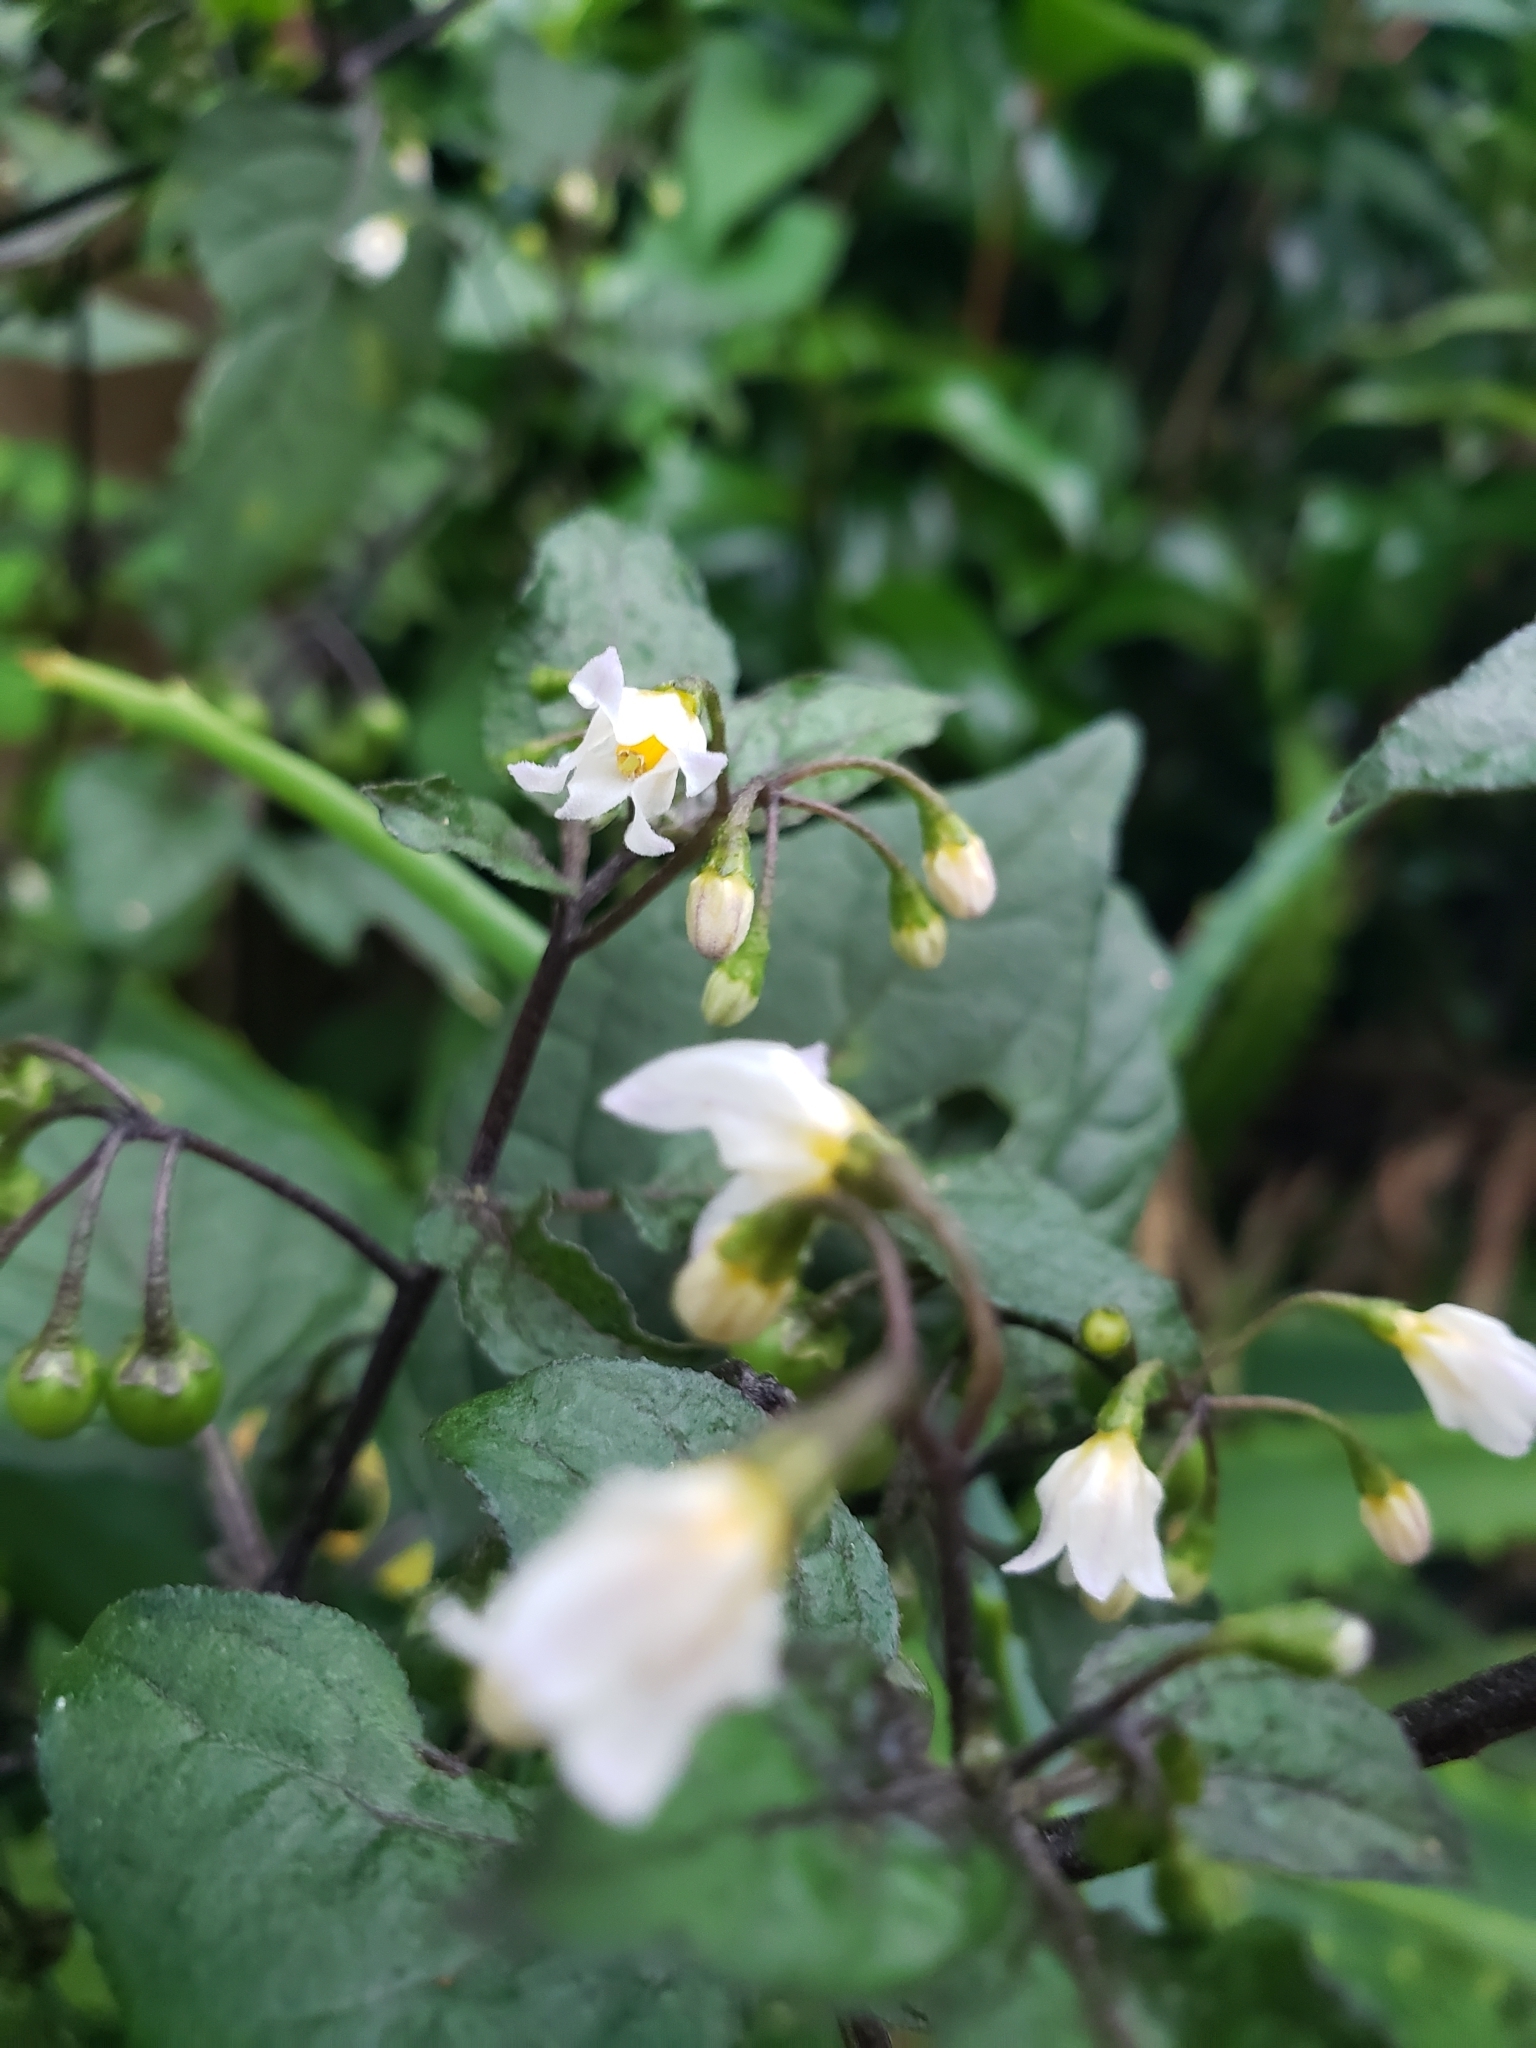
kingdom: Plantae
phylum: Tracheophyta
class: Magnoliopsida
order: Solanales
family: Solanaceae
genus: Solanum
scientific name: Solanum nigrum
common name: Black nightshade
